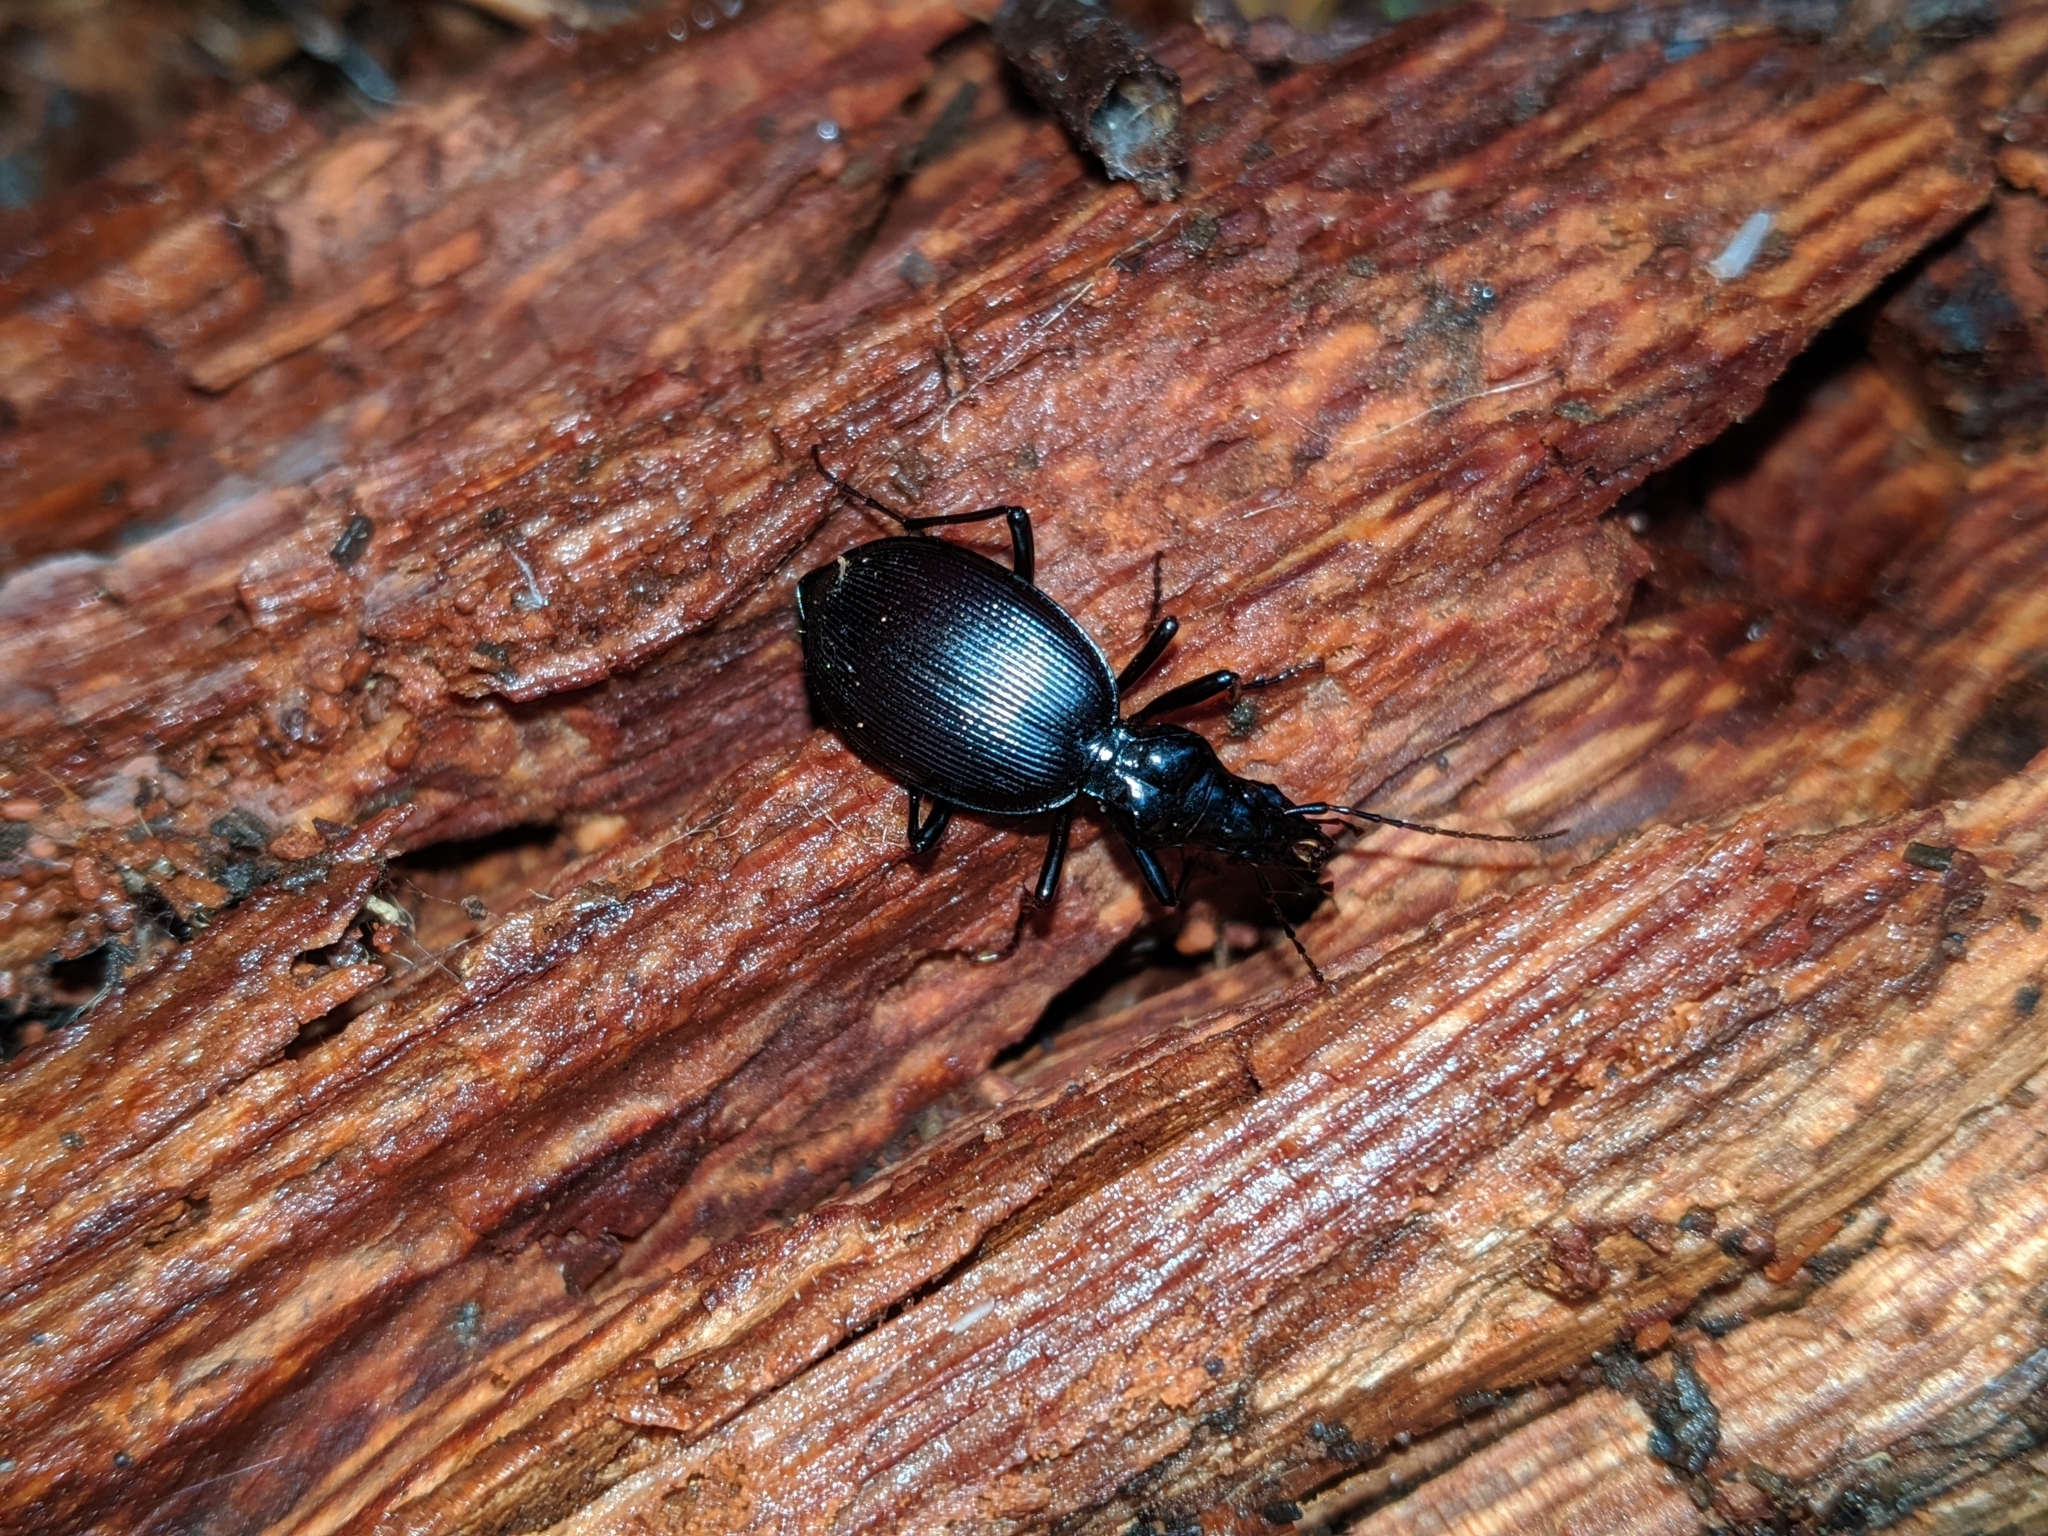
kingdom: Animalia
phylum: Arthropoda
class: Insecta
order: Coleoptera
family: Carabidae
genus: Scaphinotus
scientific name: Scaphinotus angulatus
